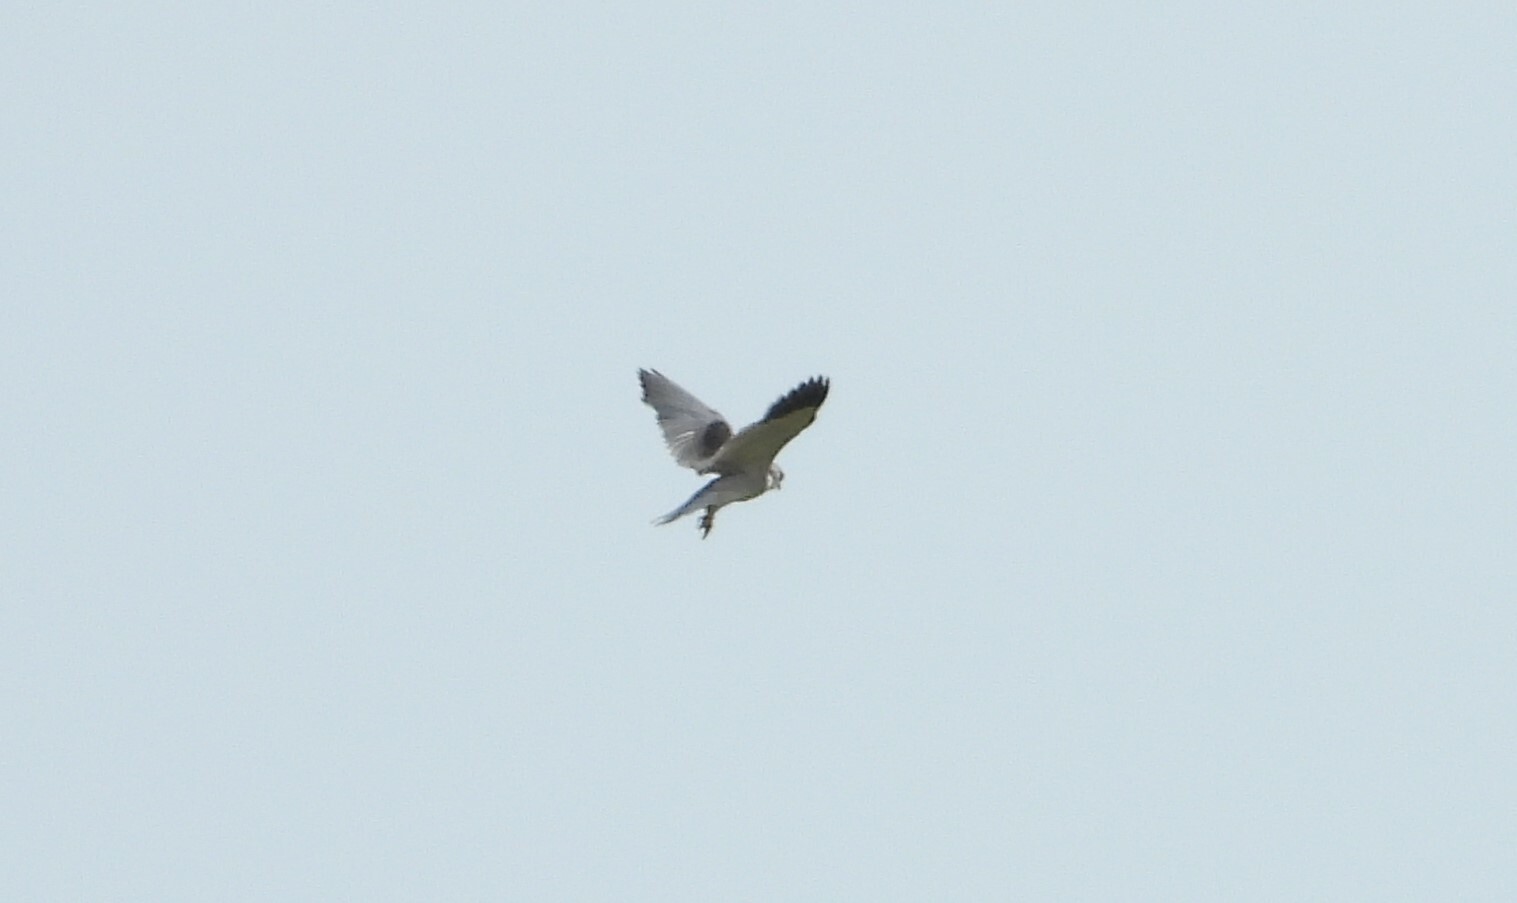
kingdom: Animalia
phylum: Chordata
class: Aves
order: Accipitriformes
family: Accipitridae
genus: Elanus
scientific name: Elanus caeruleus
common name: Black-winged kite
